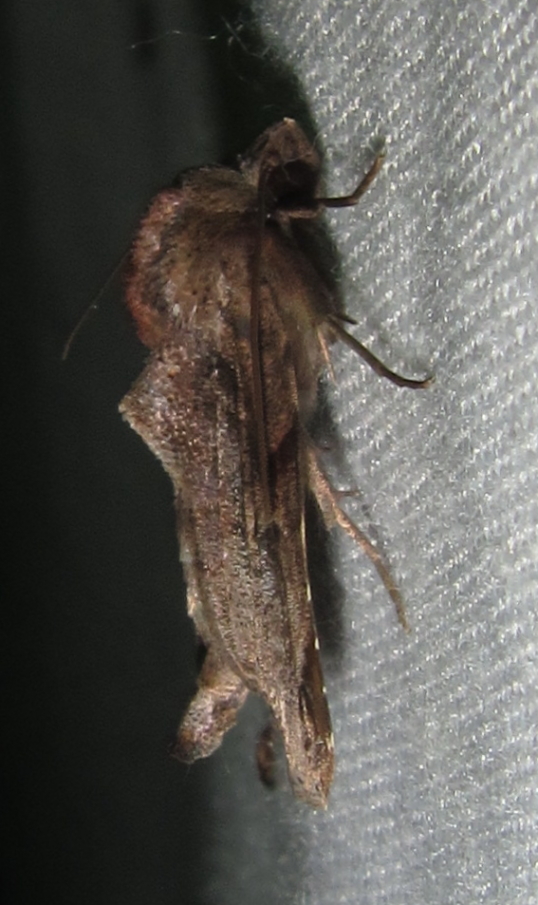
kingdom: Animalia
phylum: Arthropoda
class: Insecta
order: Lepidoptera
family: Noctuidae
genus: Androlymnia
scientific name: Androlymnia torsivena
